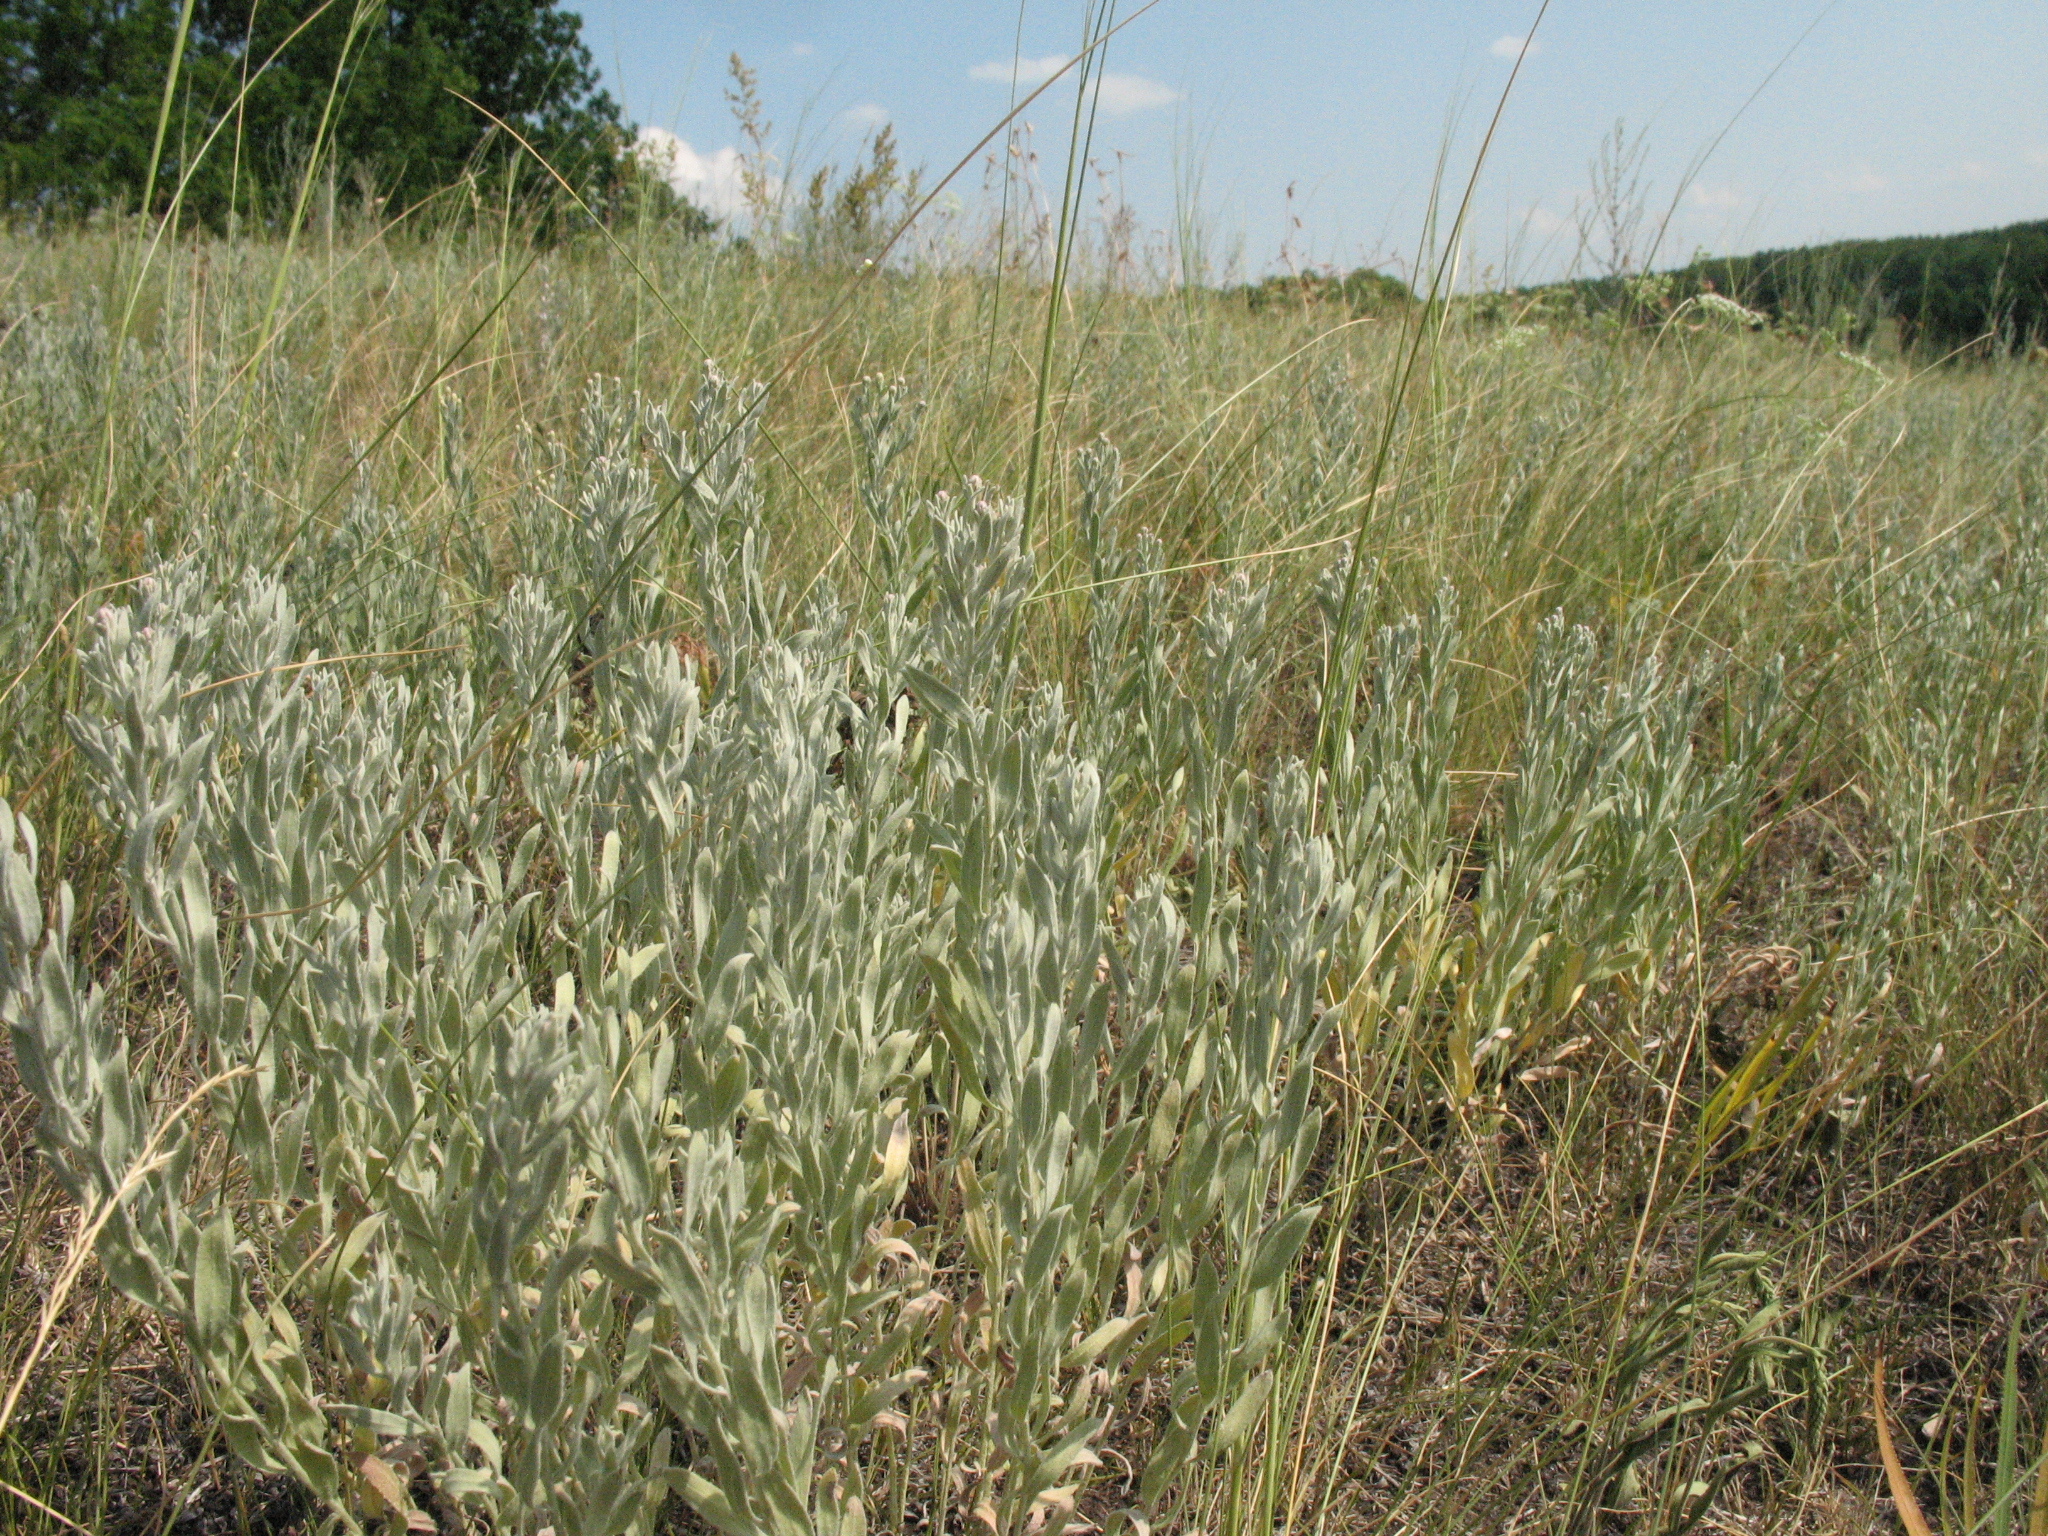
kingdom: Plantae
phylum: Tracheophyta
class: Magnoliopsida
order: Asterales
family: Asteraceae
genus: Galatella
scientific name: Galatella villosa
